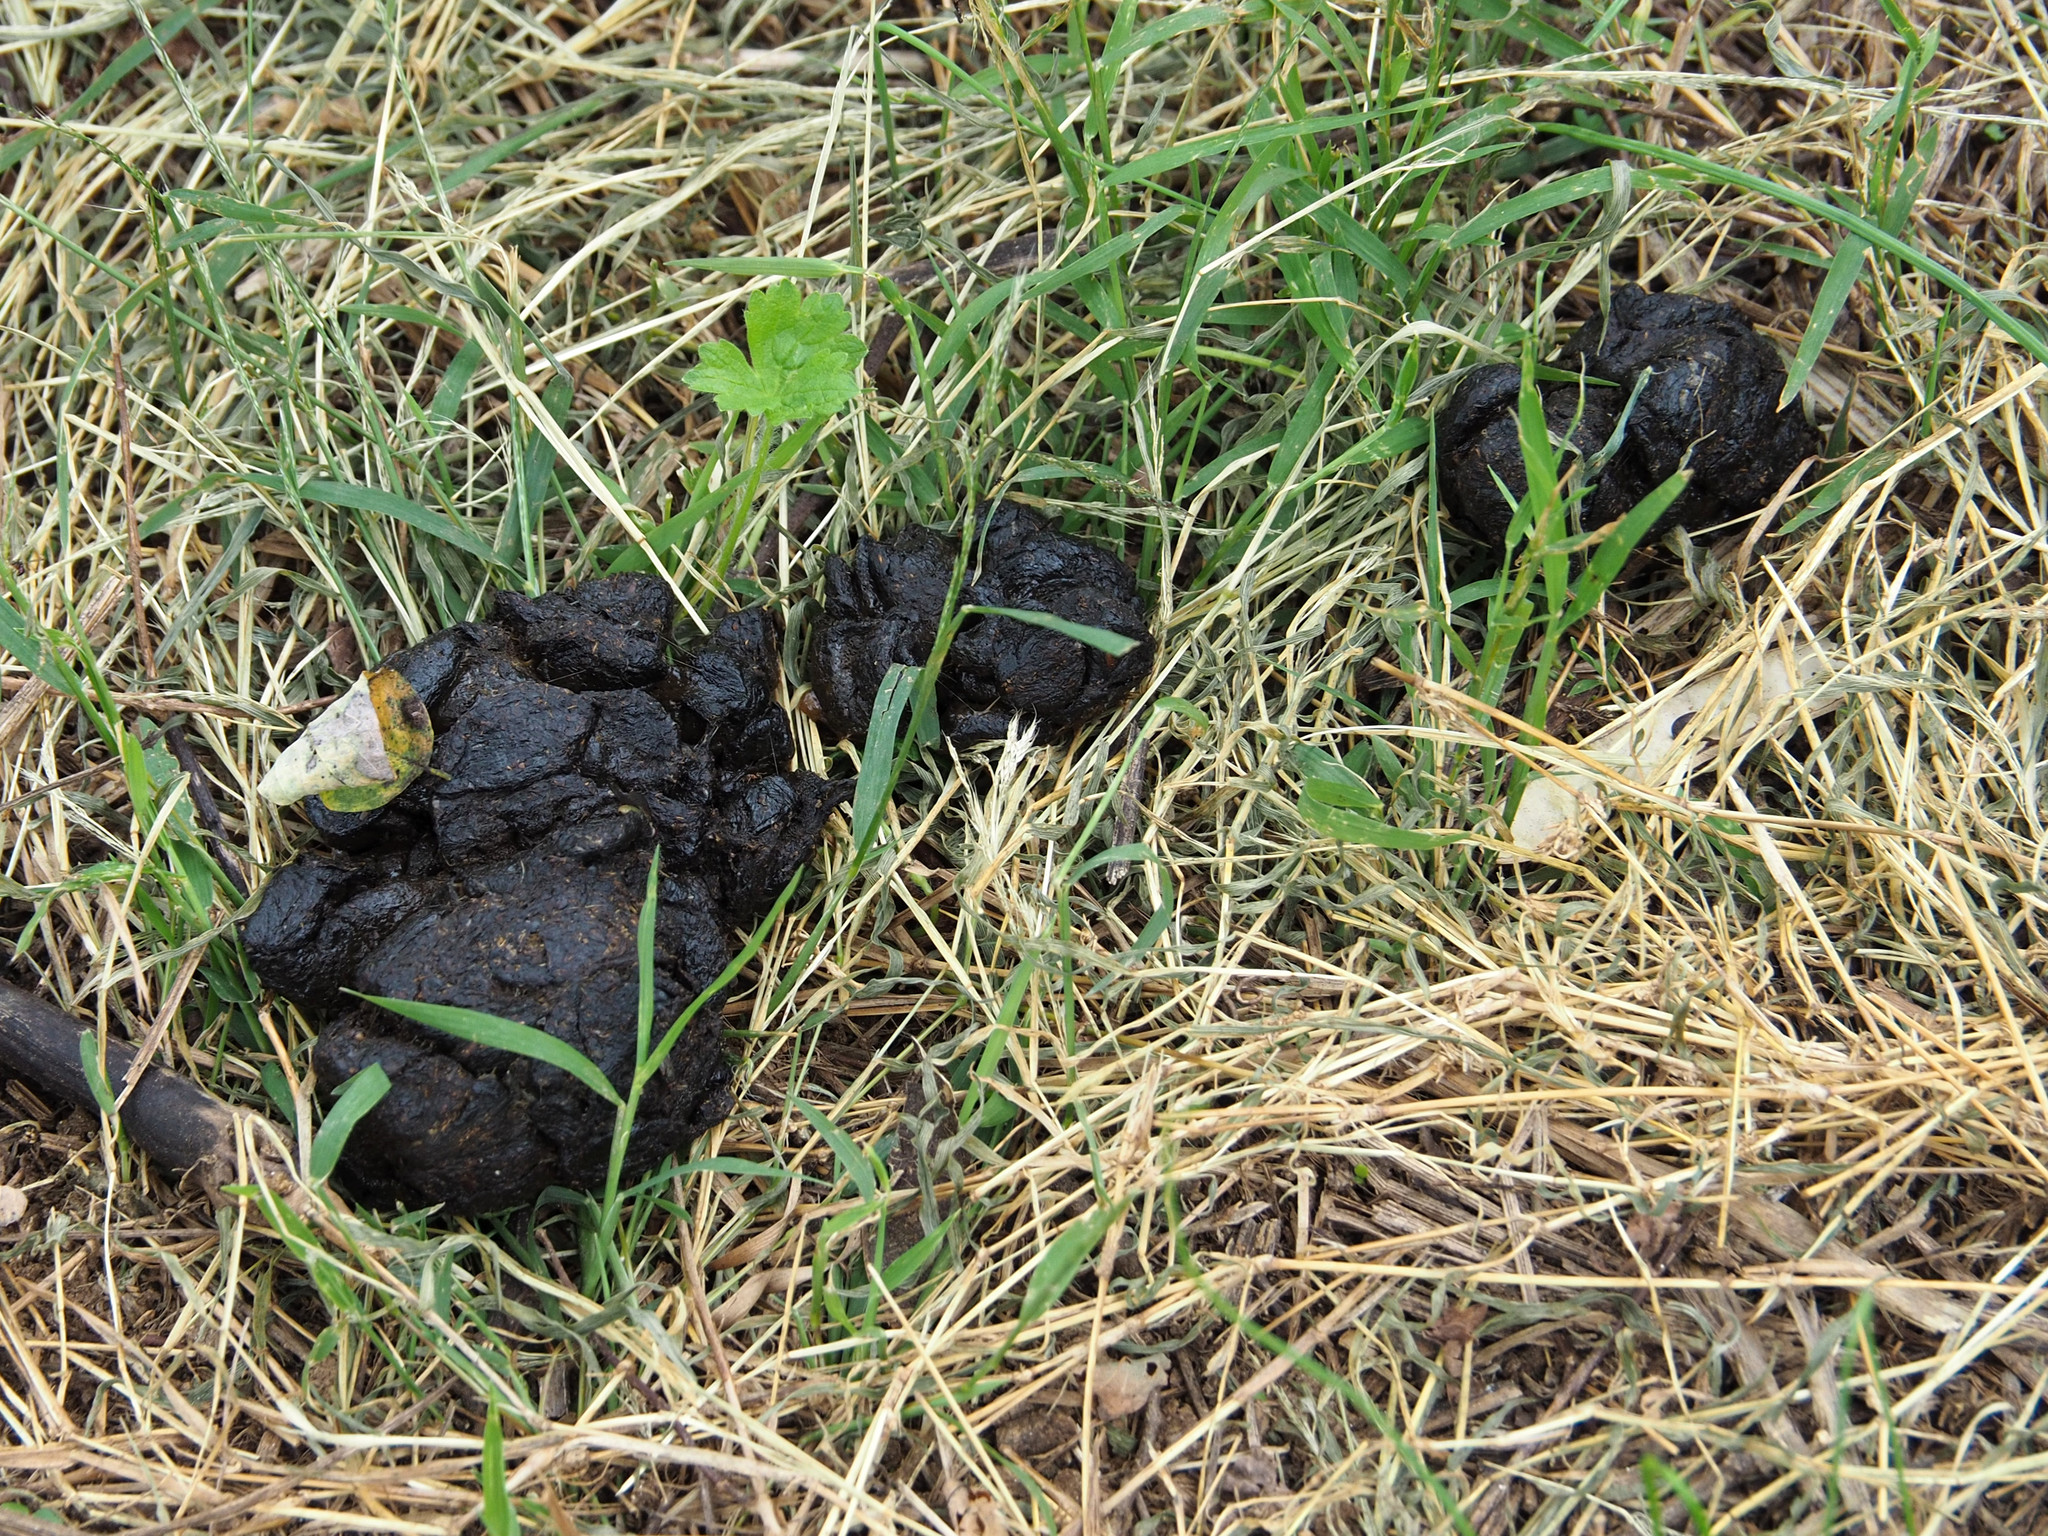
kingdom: Animalia
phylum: Chordata
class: Mammalia
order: Artiodactyla
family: Cervidae
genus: Odocoileus
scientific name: Odocoileus virginianus
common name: White-tailed deer
